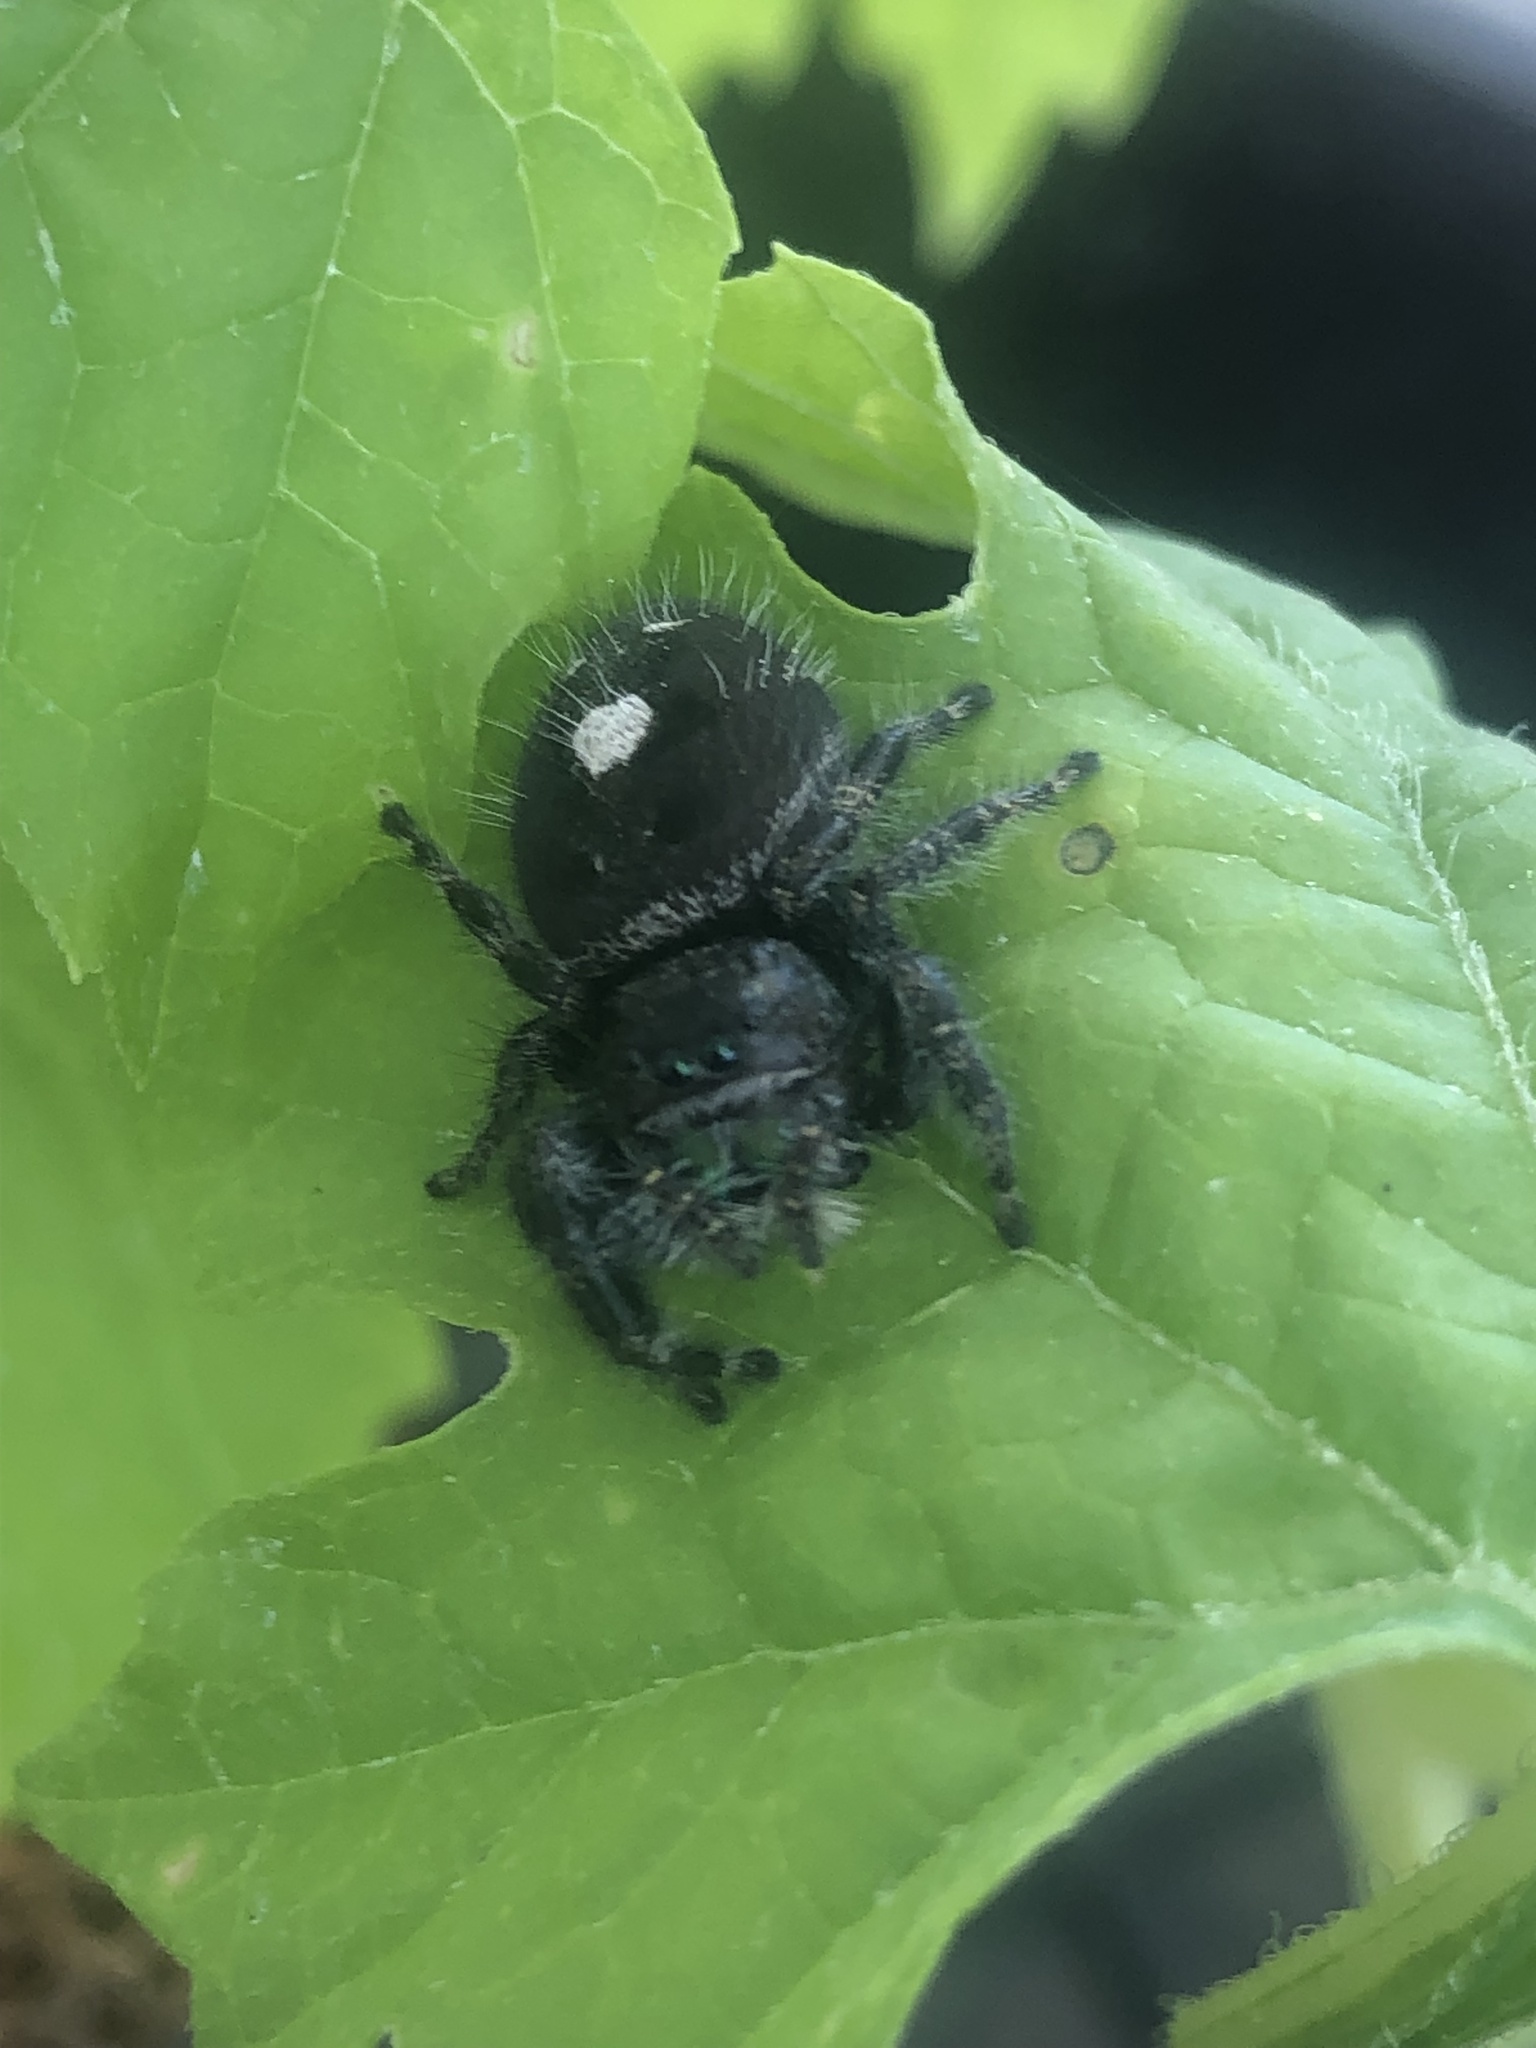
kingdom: Animalia
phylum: Arthropoda
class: Arachnida
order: Araneae
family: Salticidae
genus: Phidippus
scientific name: Phidippus audax
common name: Bold jumper
